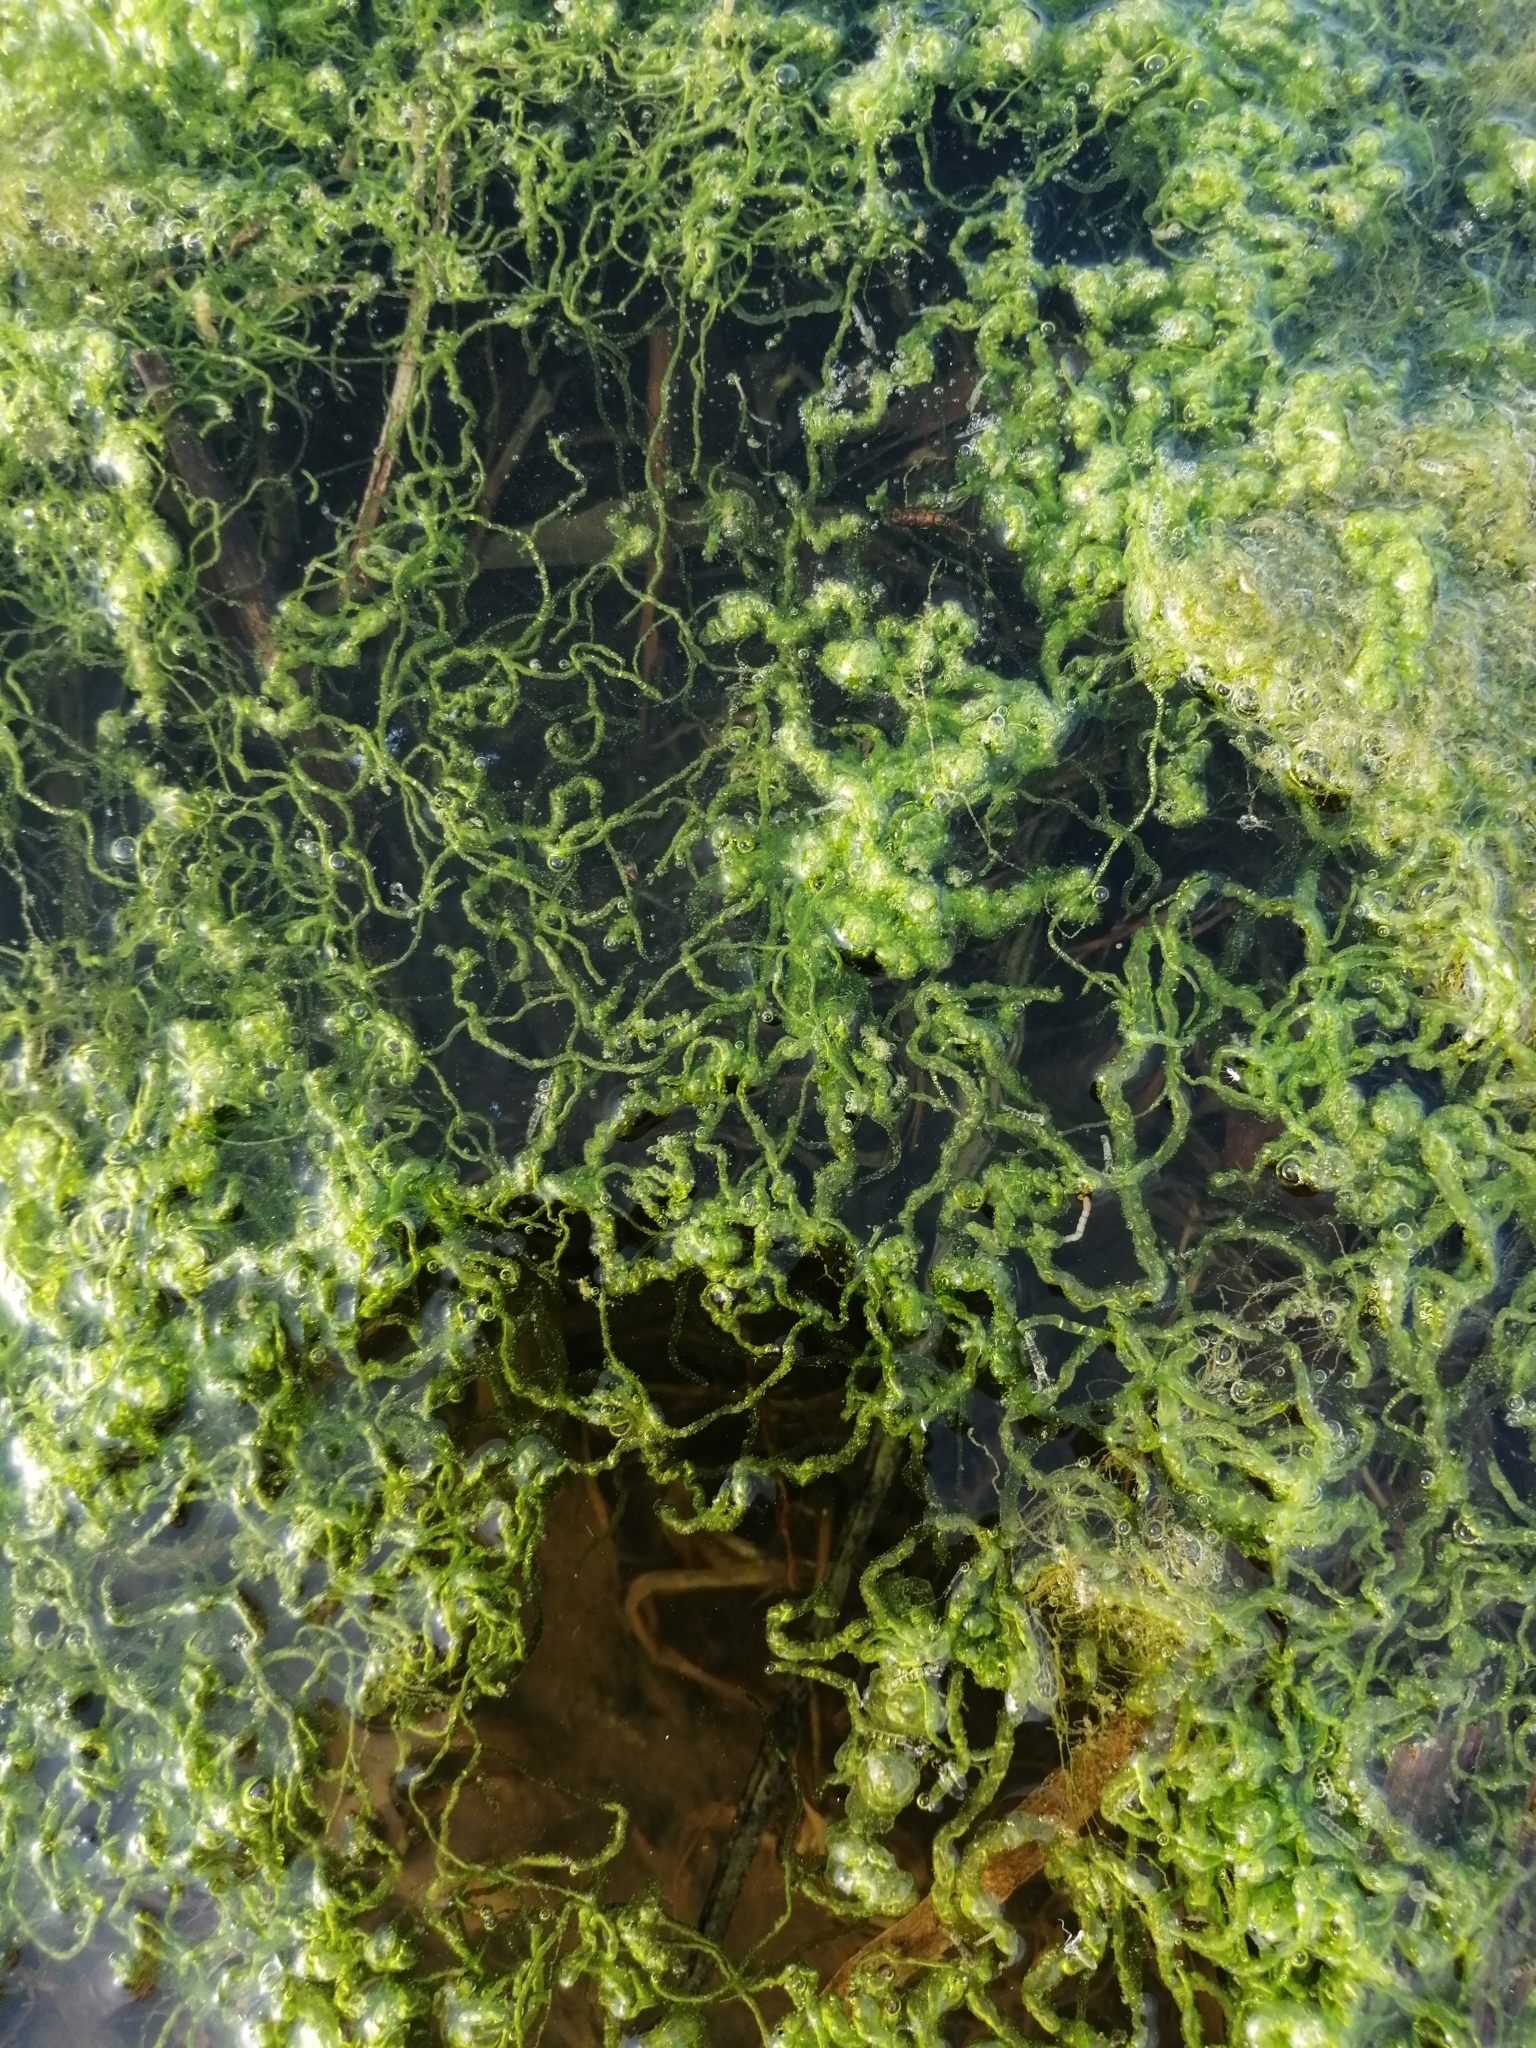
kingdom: Plantae
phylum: Chlorophyta
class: Ulvophyceae
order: Ulvales
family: Ulvaceae
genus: Ulva
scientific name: Ulva intestinalis
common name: Gut weed
